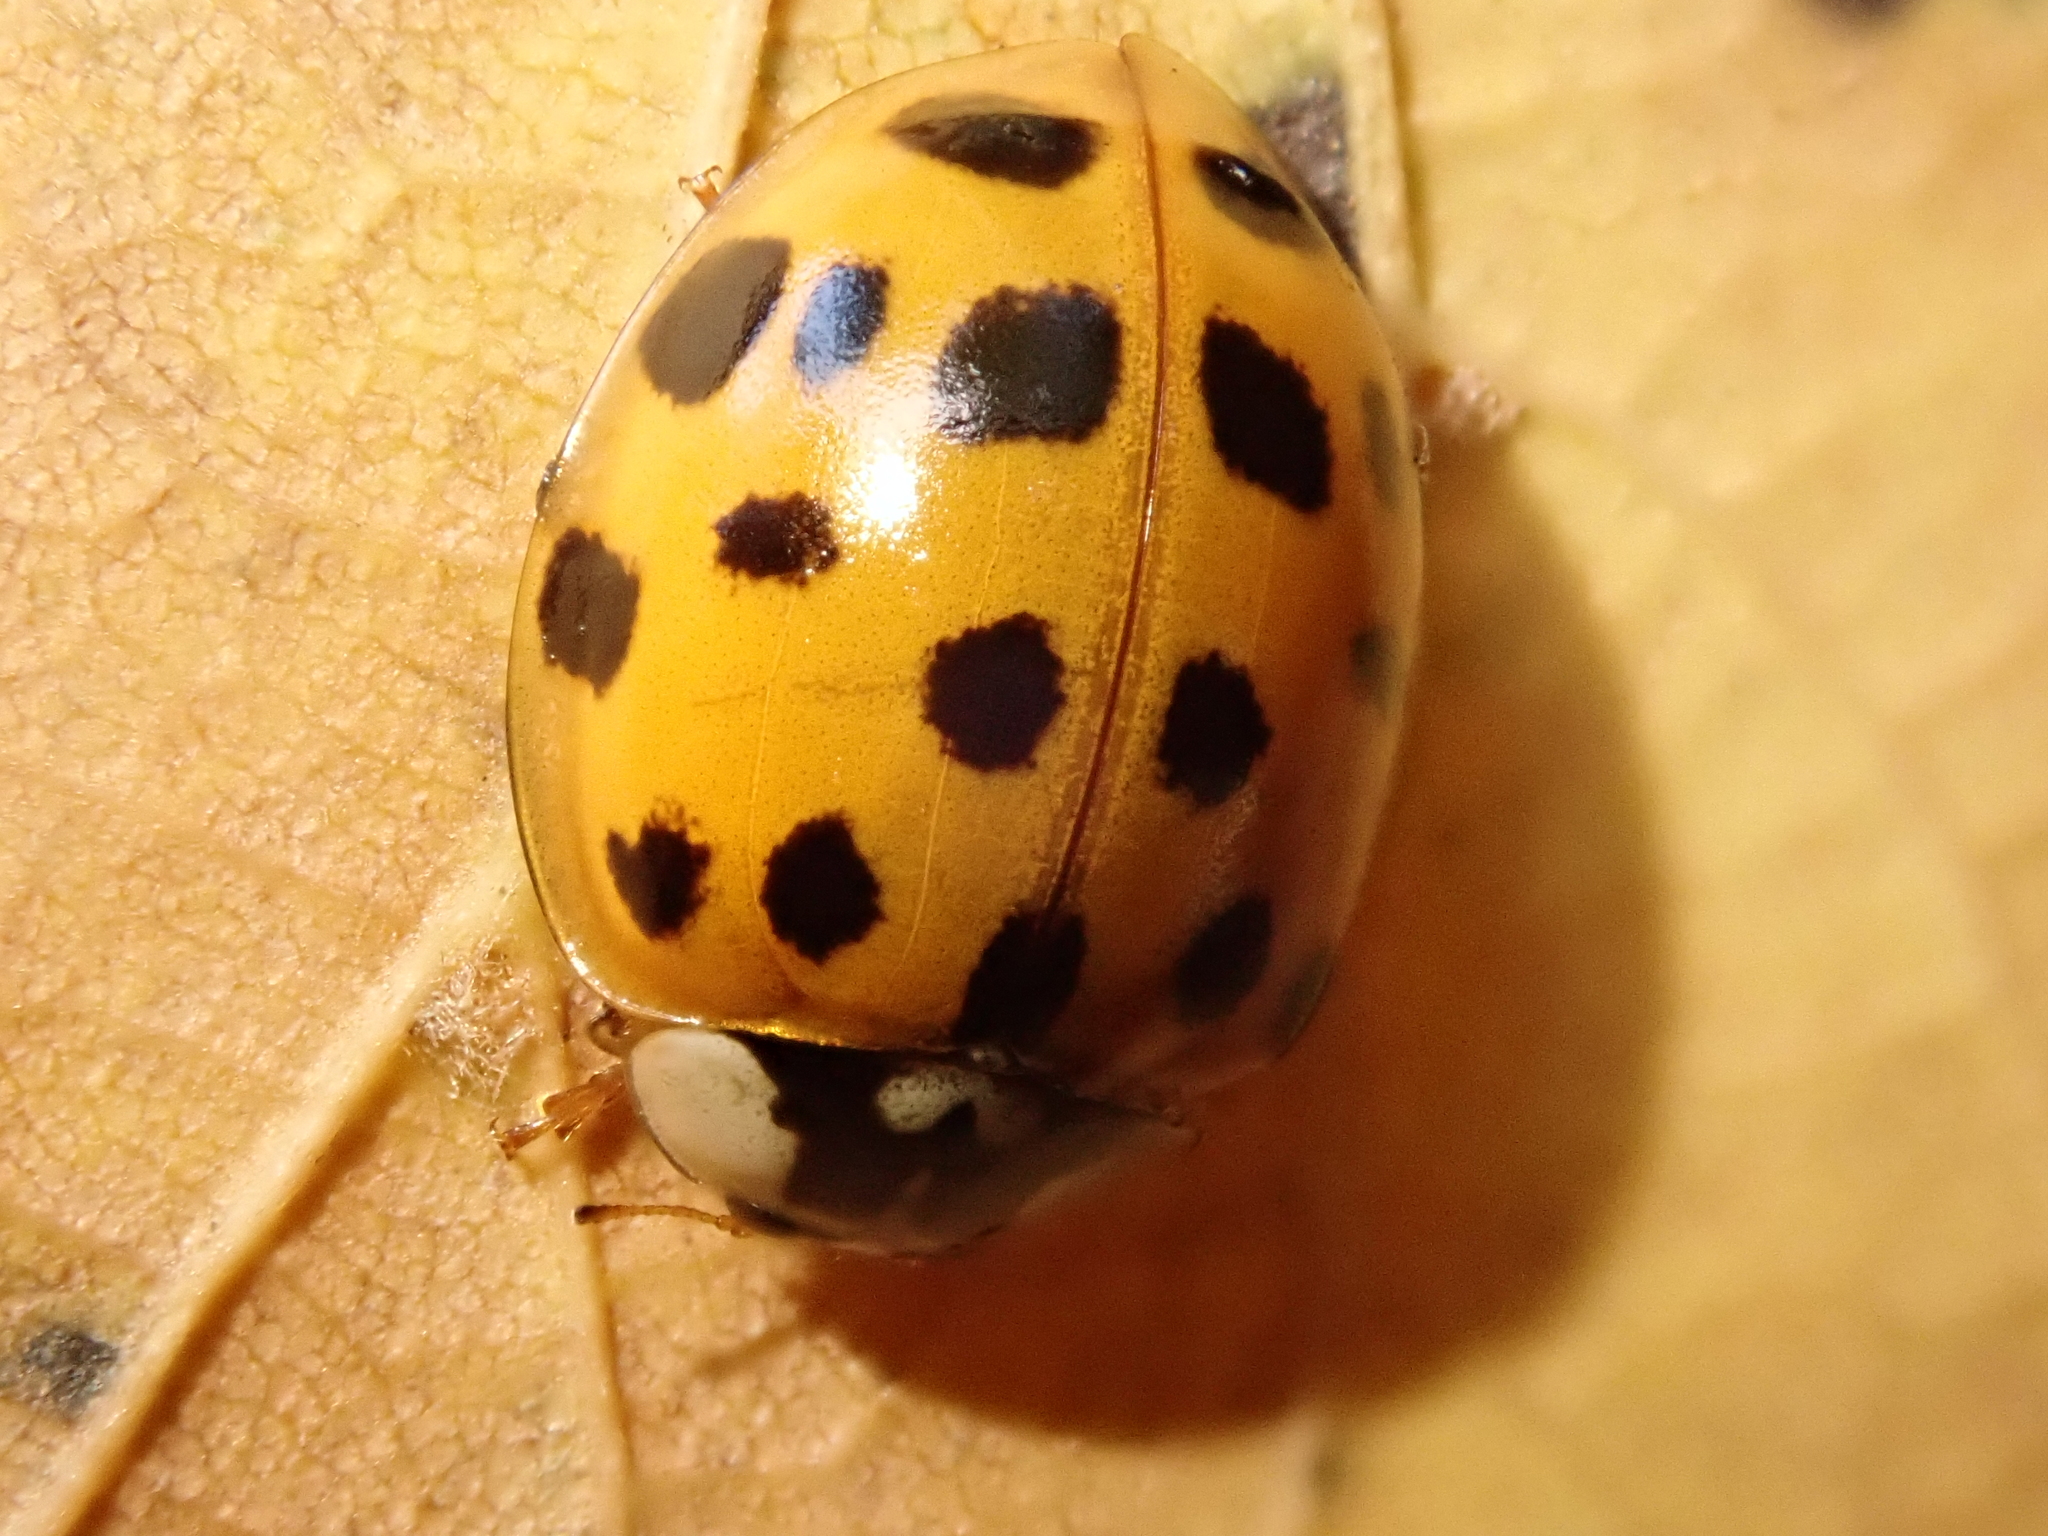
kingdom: Animalia
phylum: Arthropoda
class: Insecta
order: Coleoptera
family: Coccinellidae
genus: Harmonia
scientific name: Harmonia axyridis
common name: Harlequin ladybird
